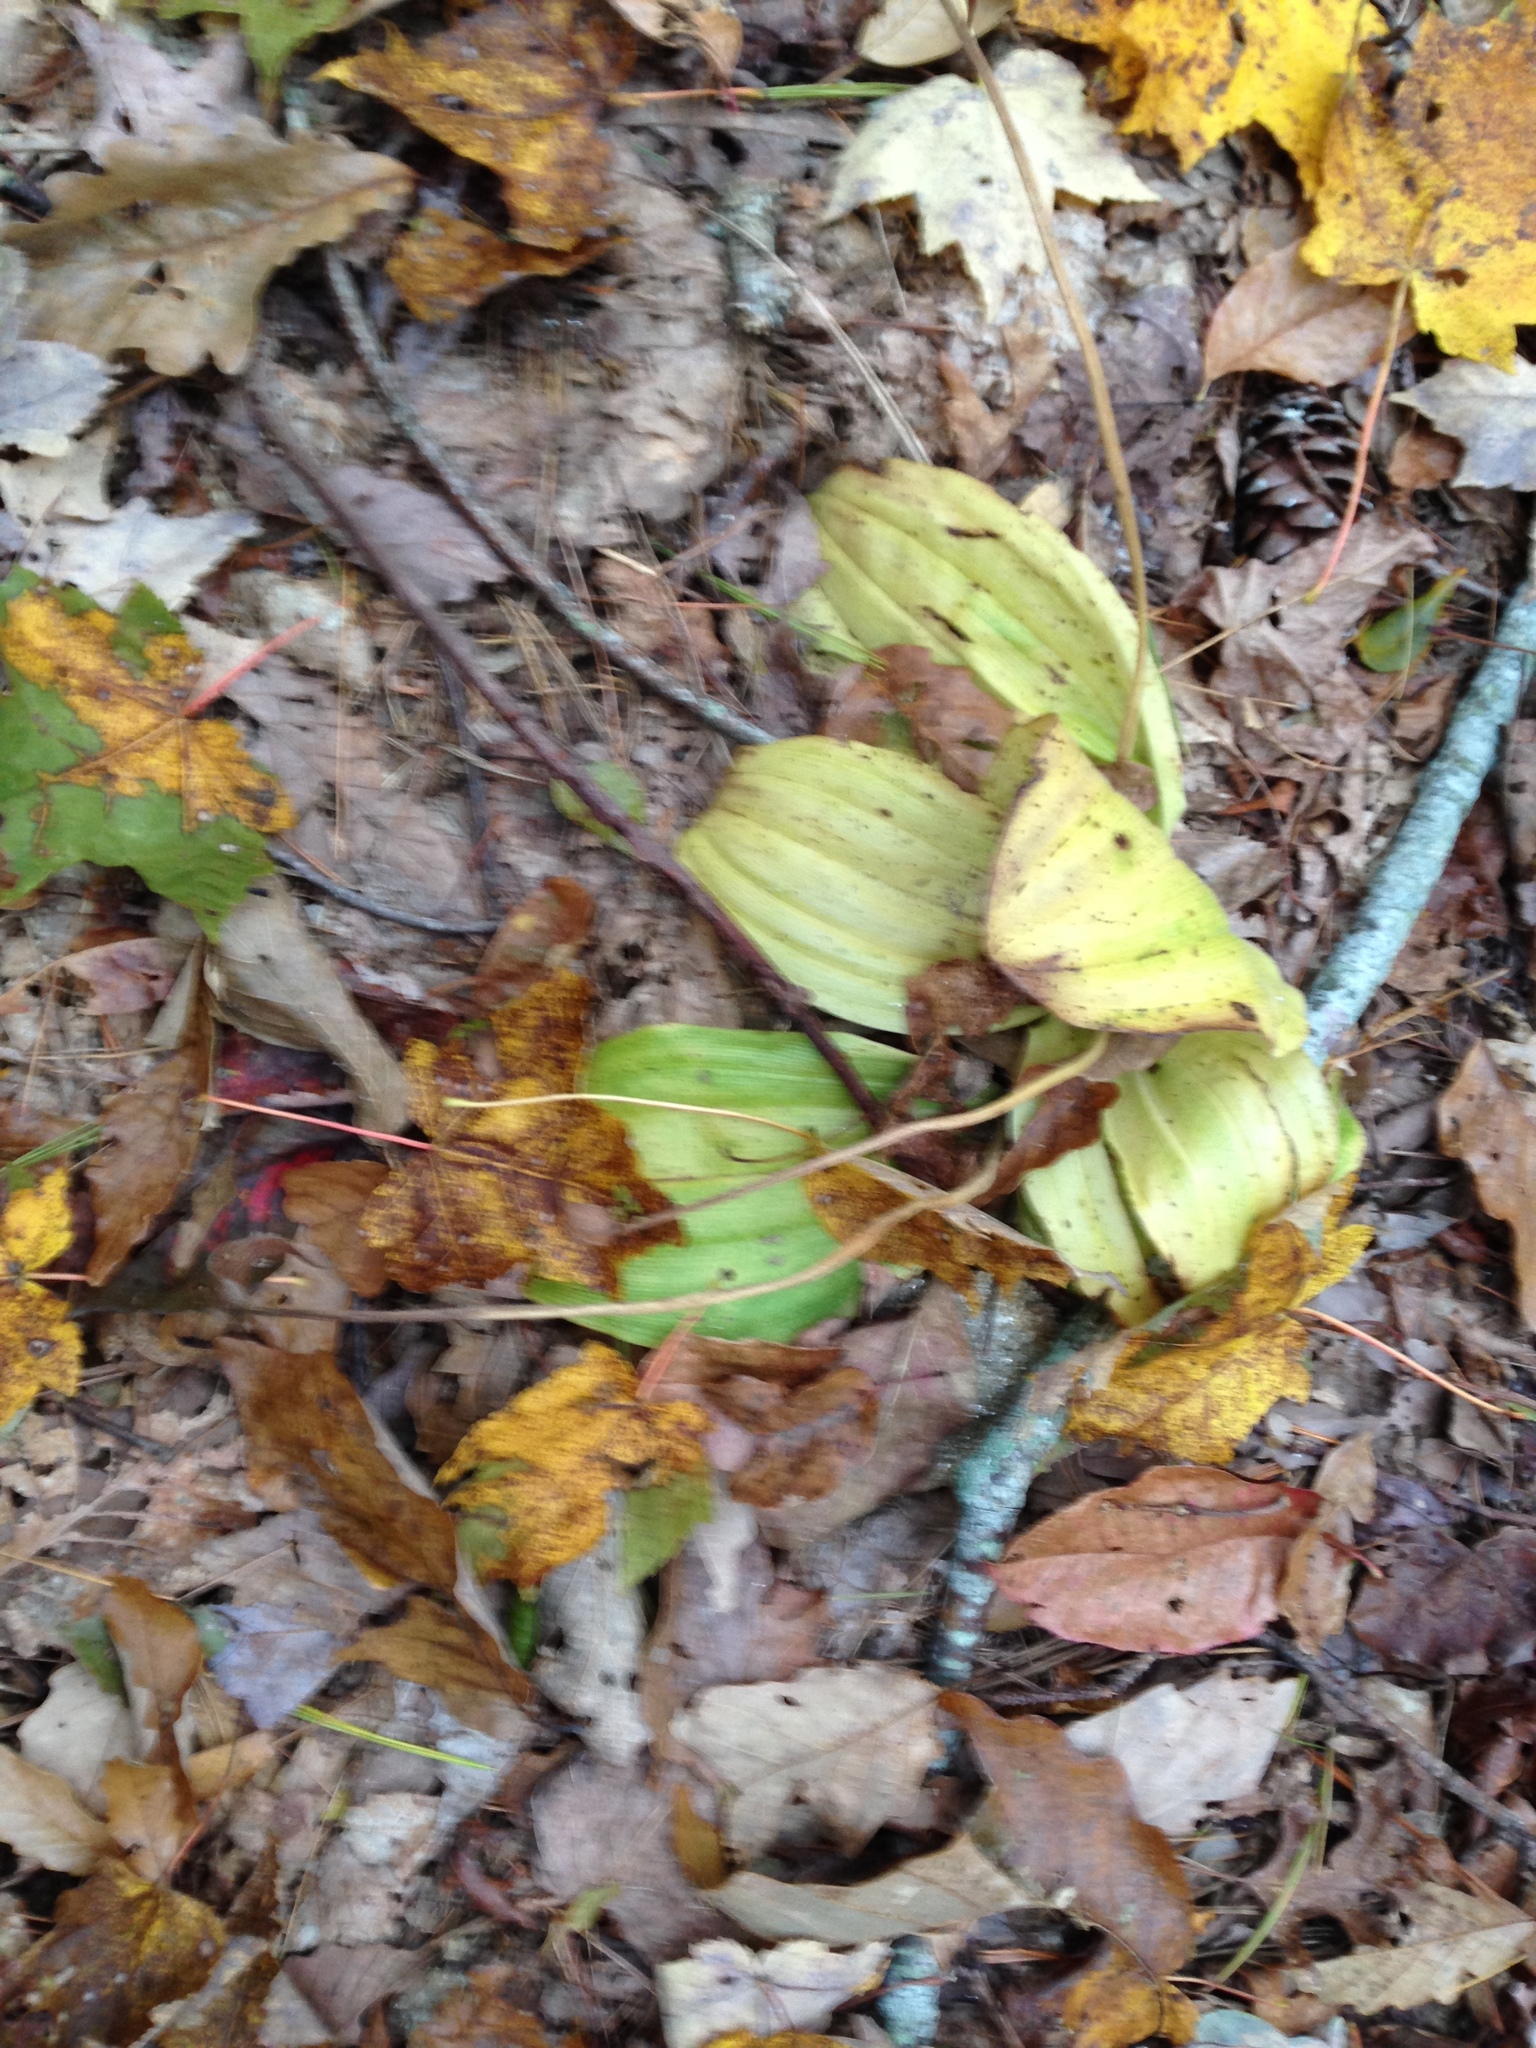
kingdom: Plantae
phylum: Tracheophyta
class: Liliopsida
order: Asparagales
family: Orchidaceae
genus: Cypripedium
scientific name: Cypripedium acaule
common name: Pink lady's-slipper
